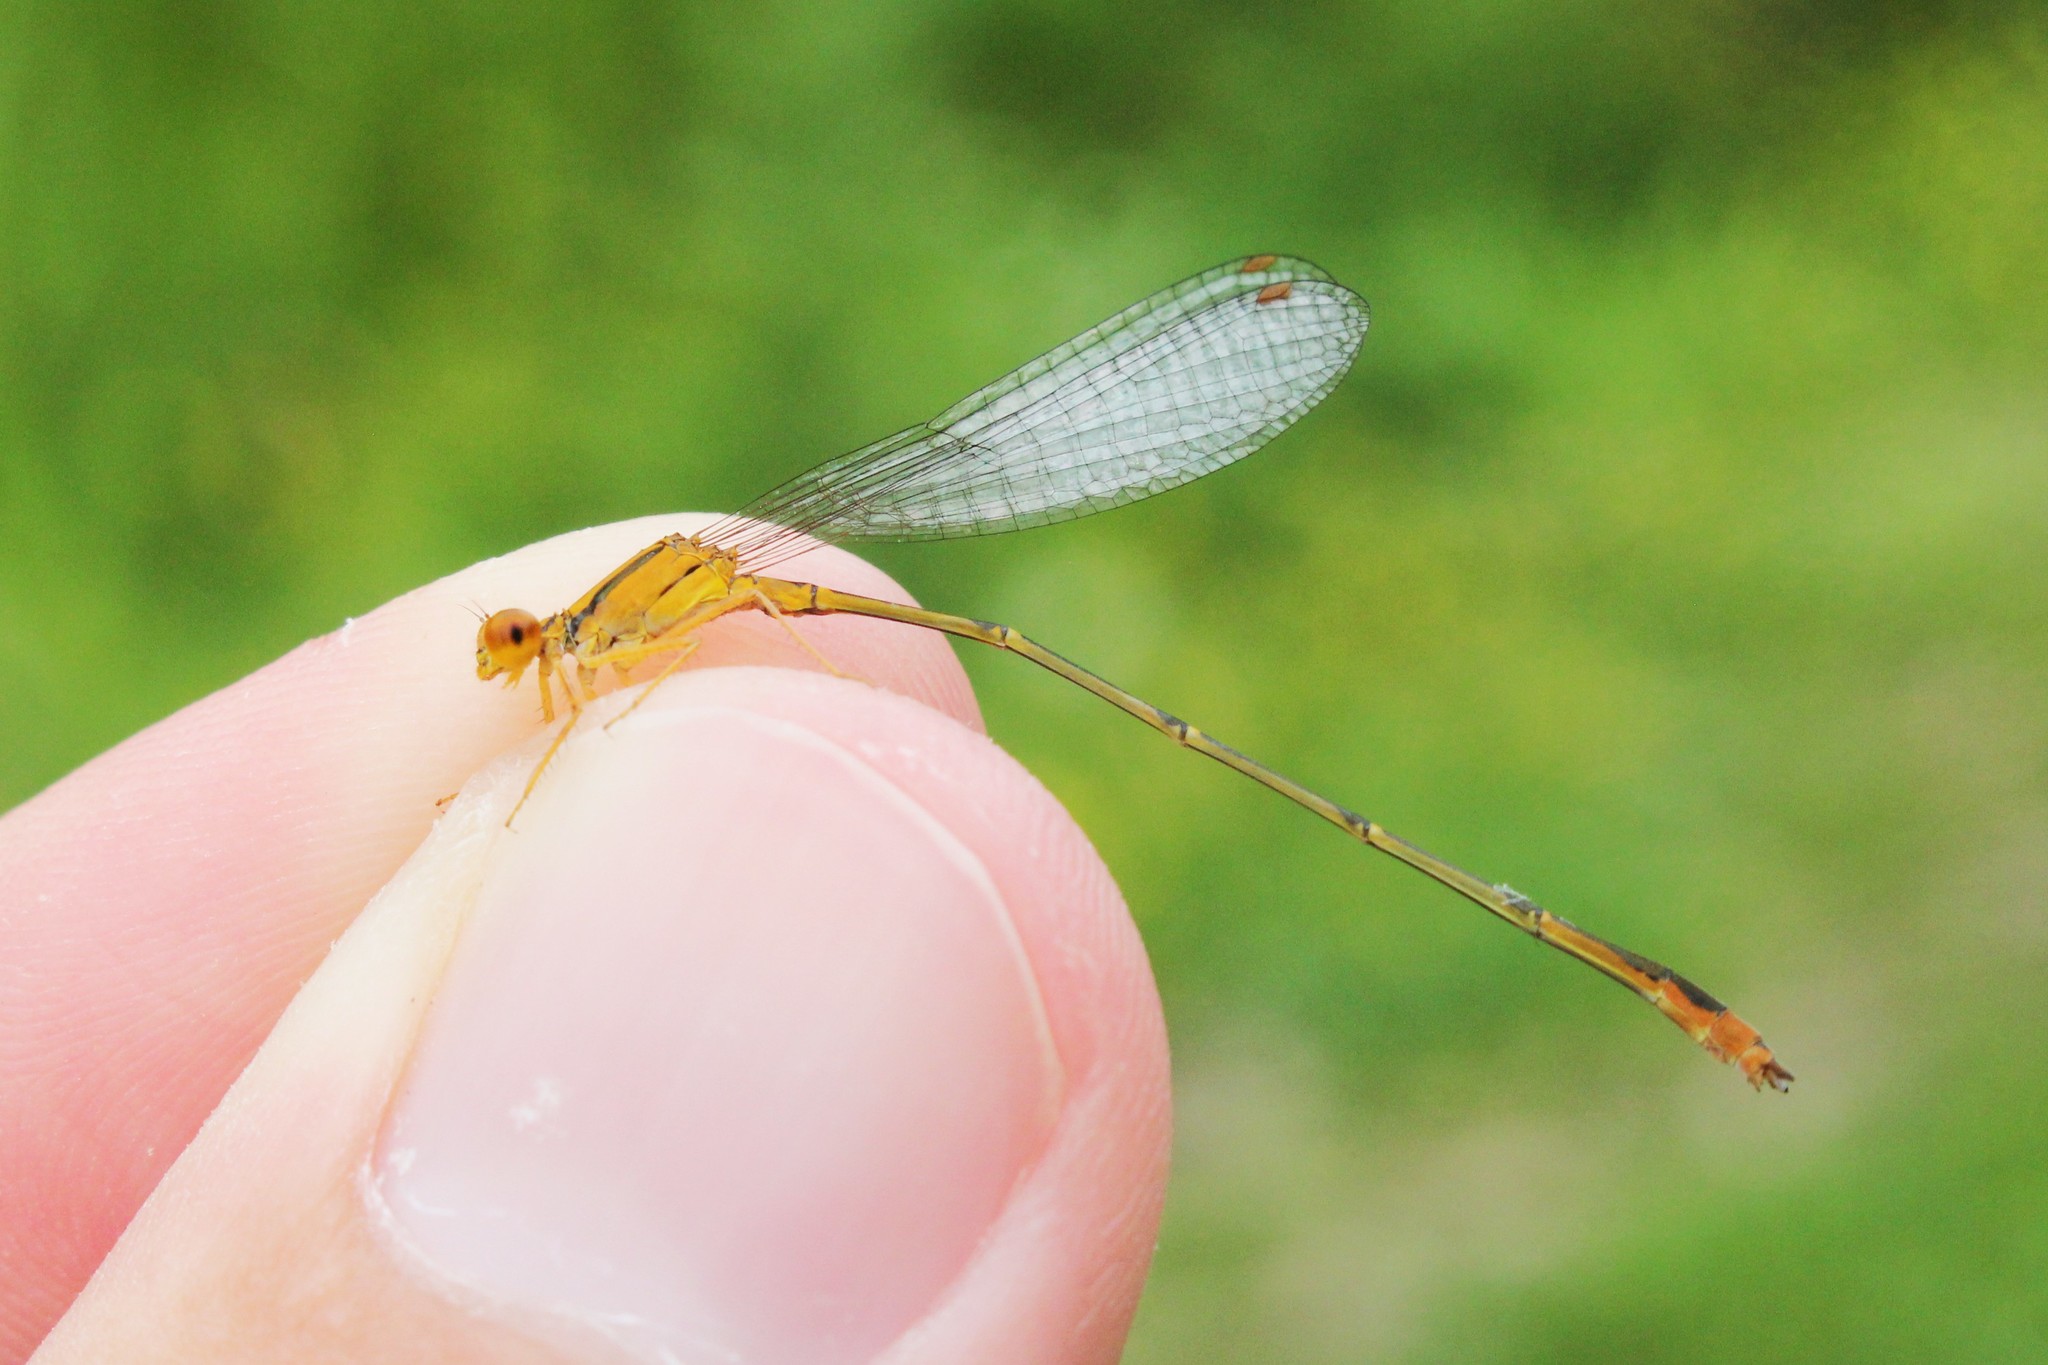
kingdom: Animalia
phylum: Arthropoda
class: Insecta
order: Odonata
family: Coenagrionidae
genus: Enallagma
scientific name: Enallagma signatum
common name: Orange bluet
